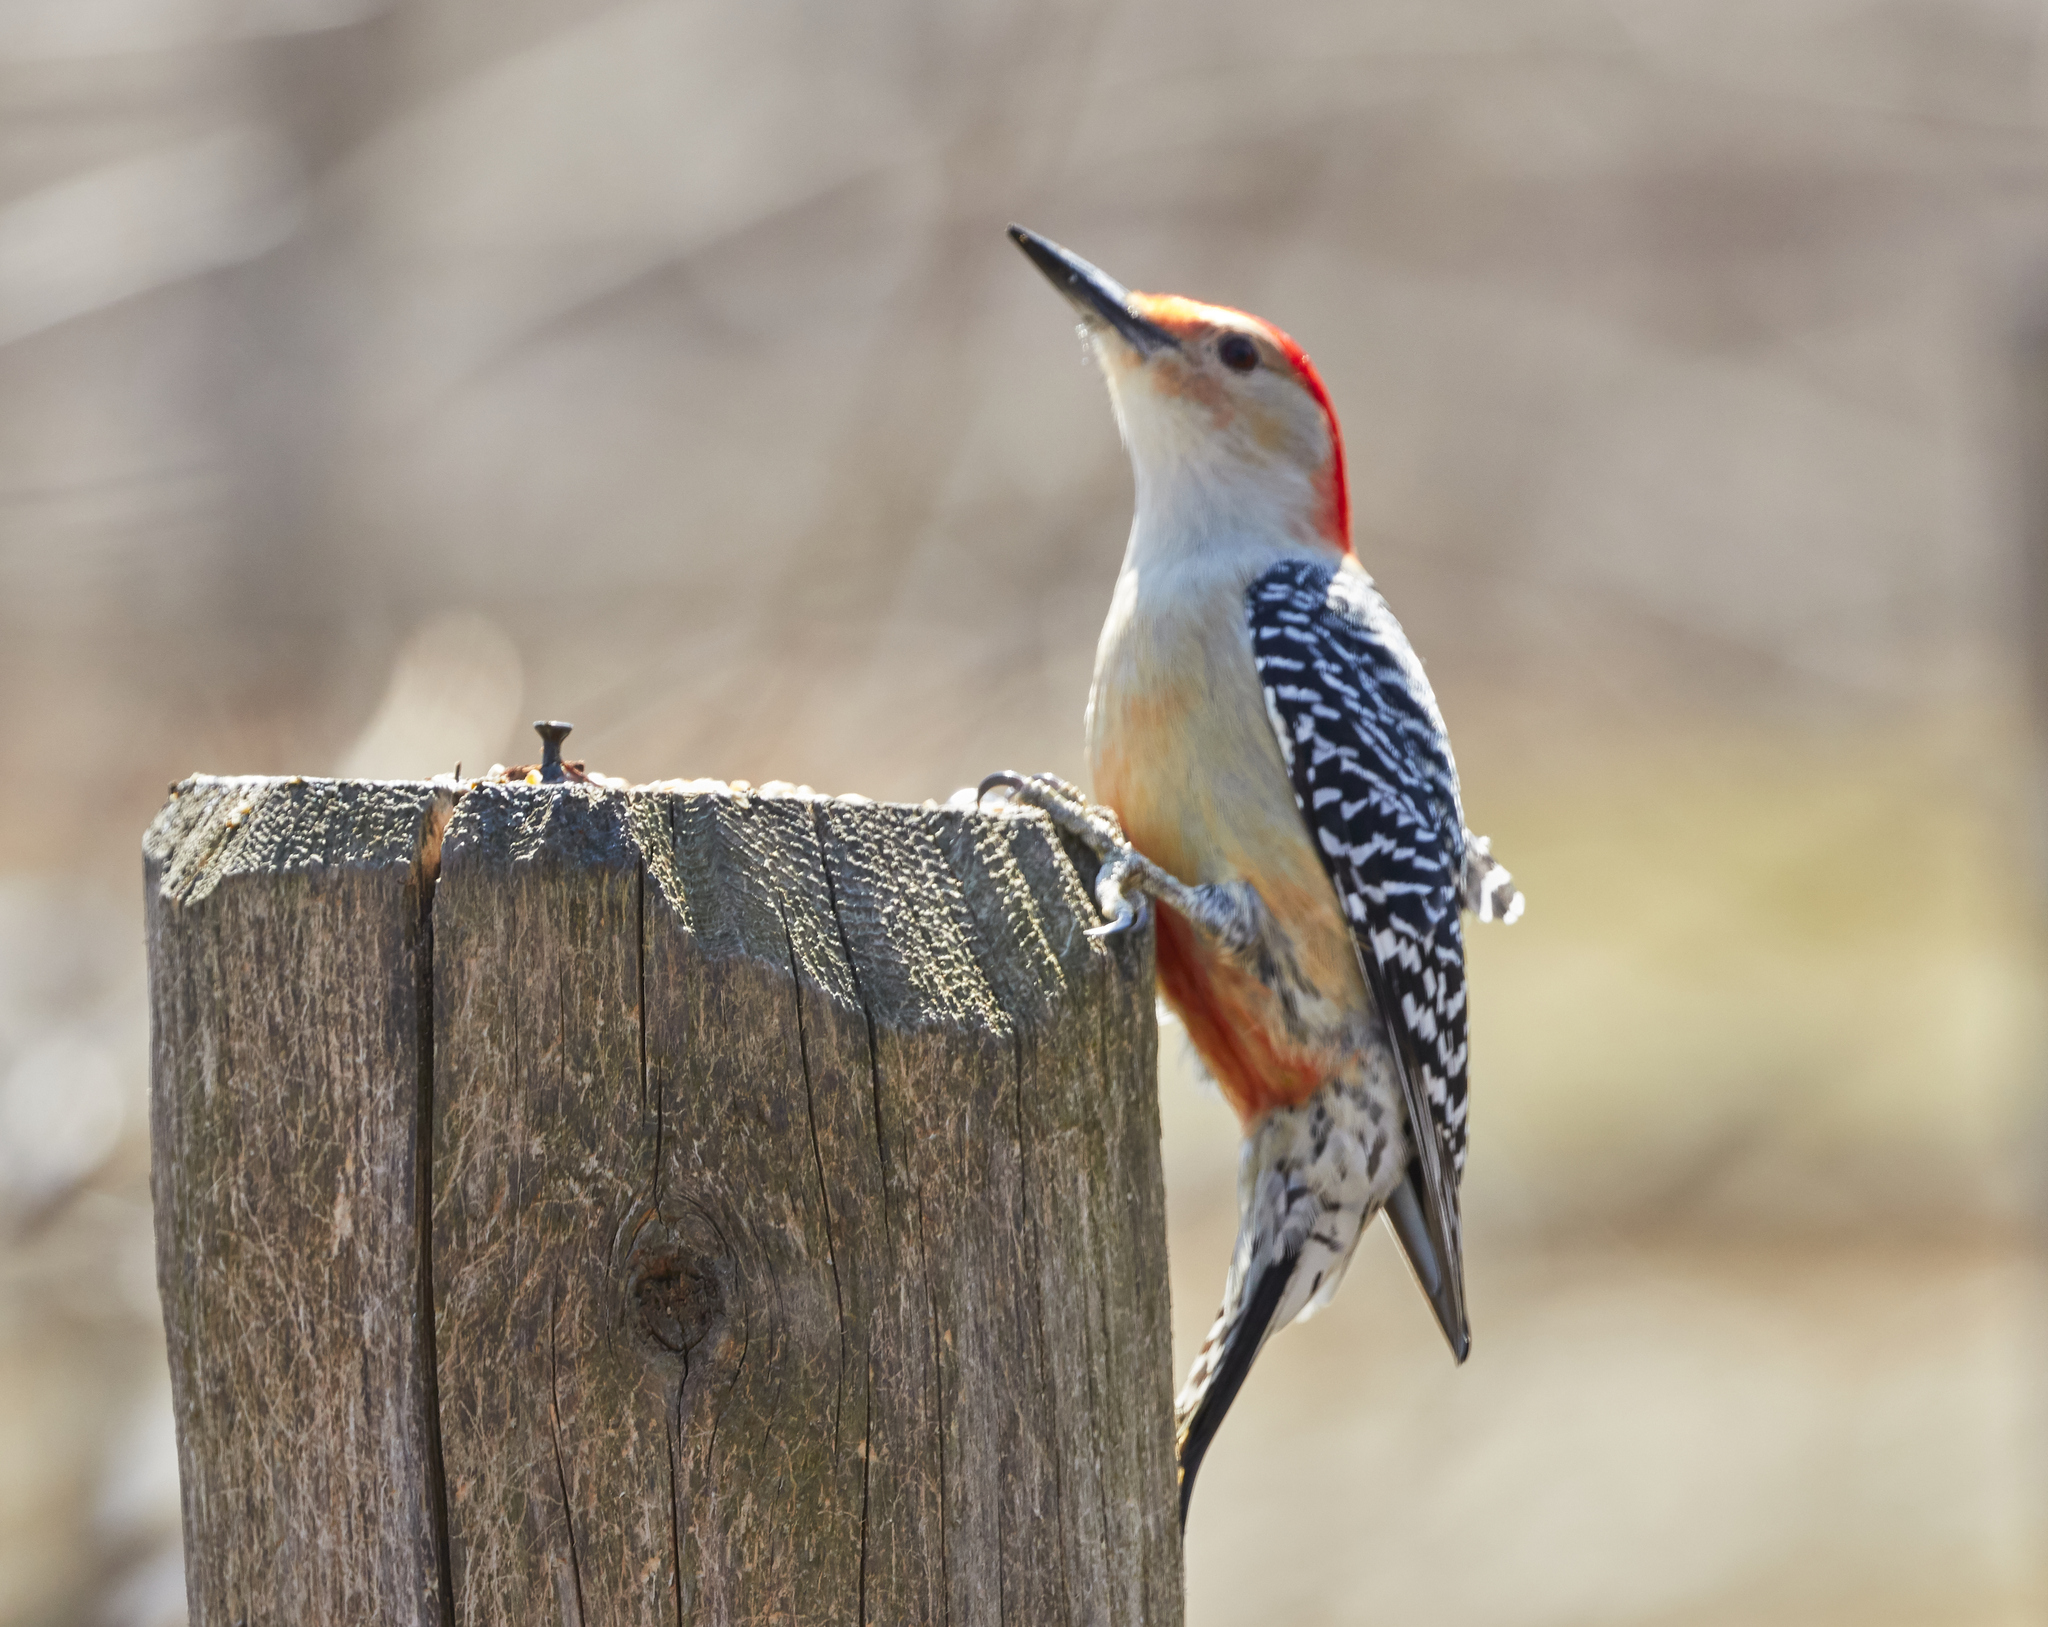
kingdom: Animalia
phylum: Chordata
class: Aves
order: Piciformes
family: Picidae
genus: Melanerpes
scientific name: Melanerpes carolinus
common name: Red-bellied woodpecker
